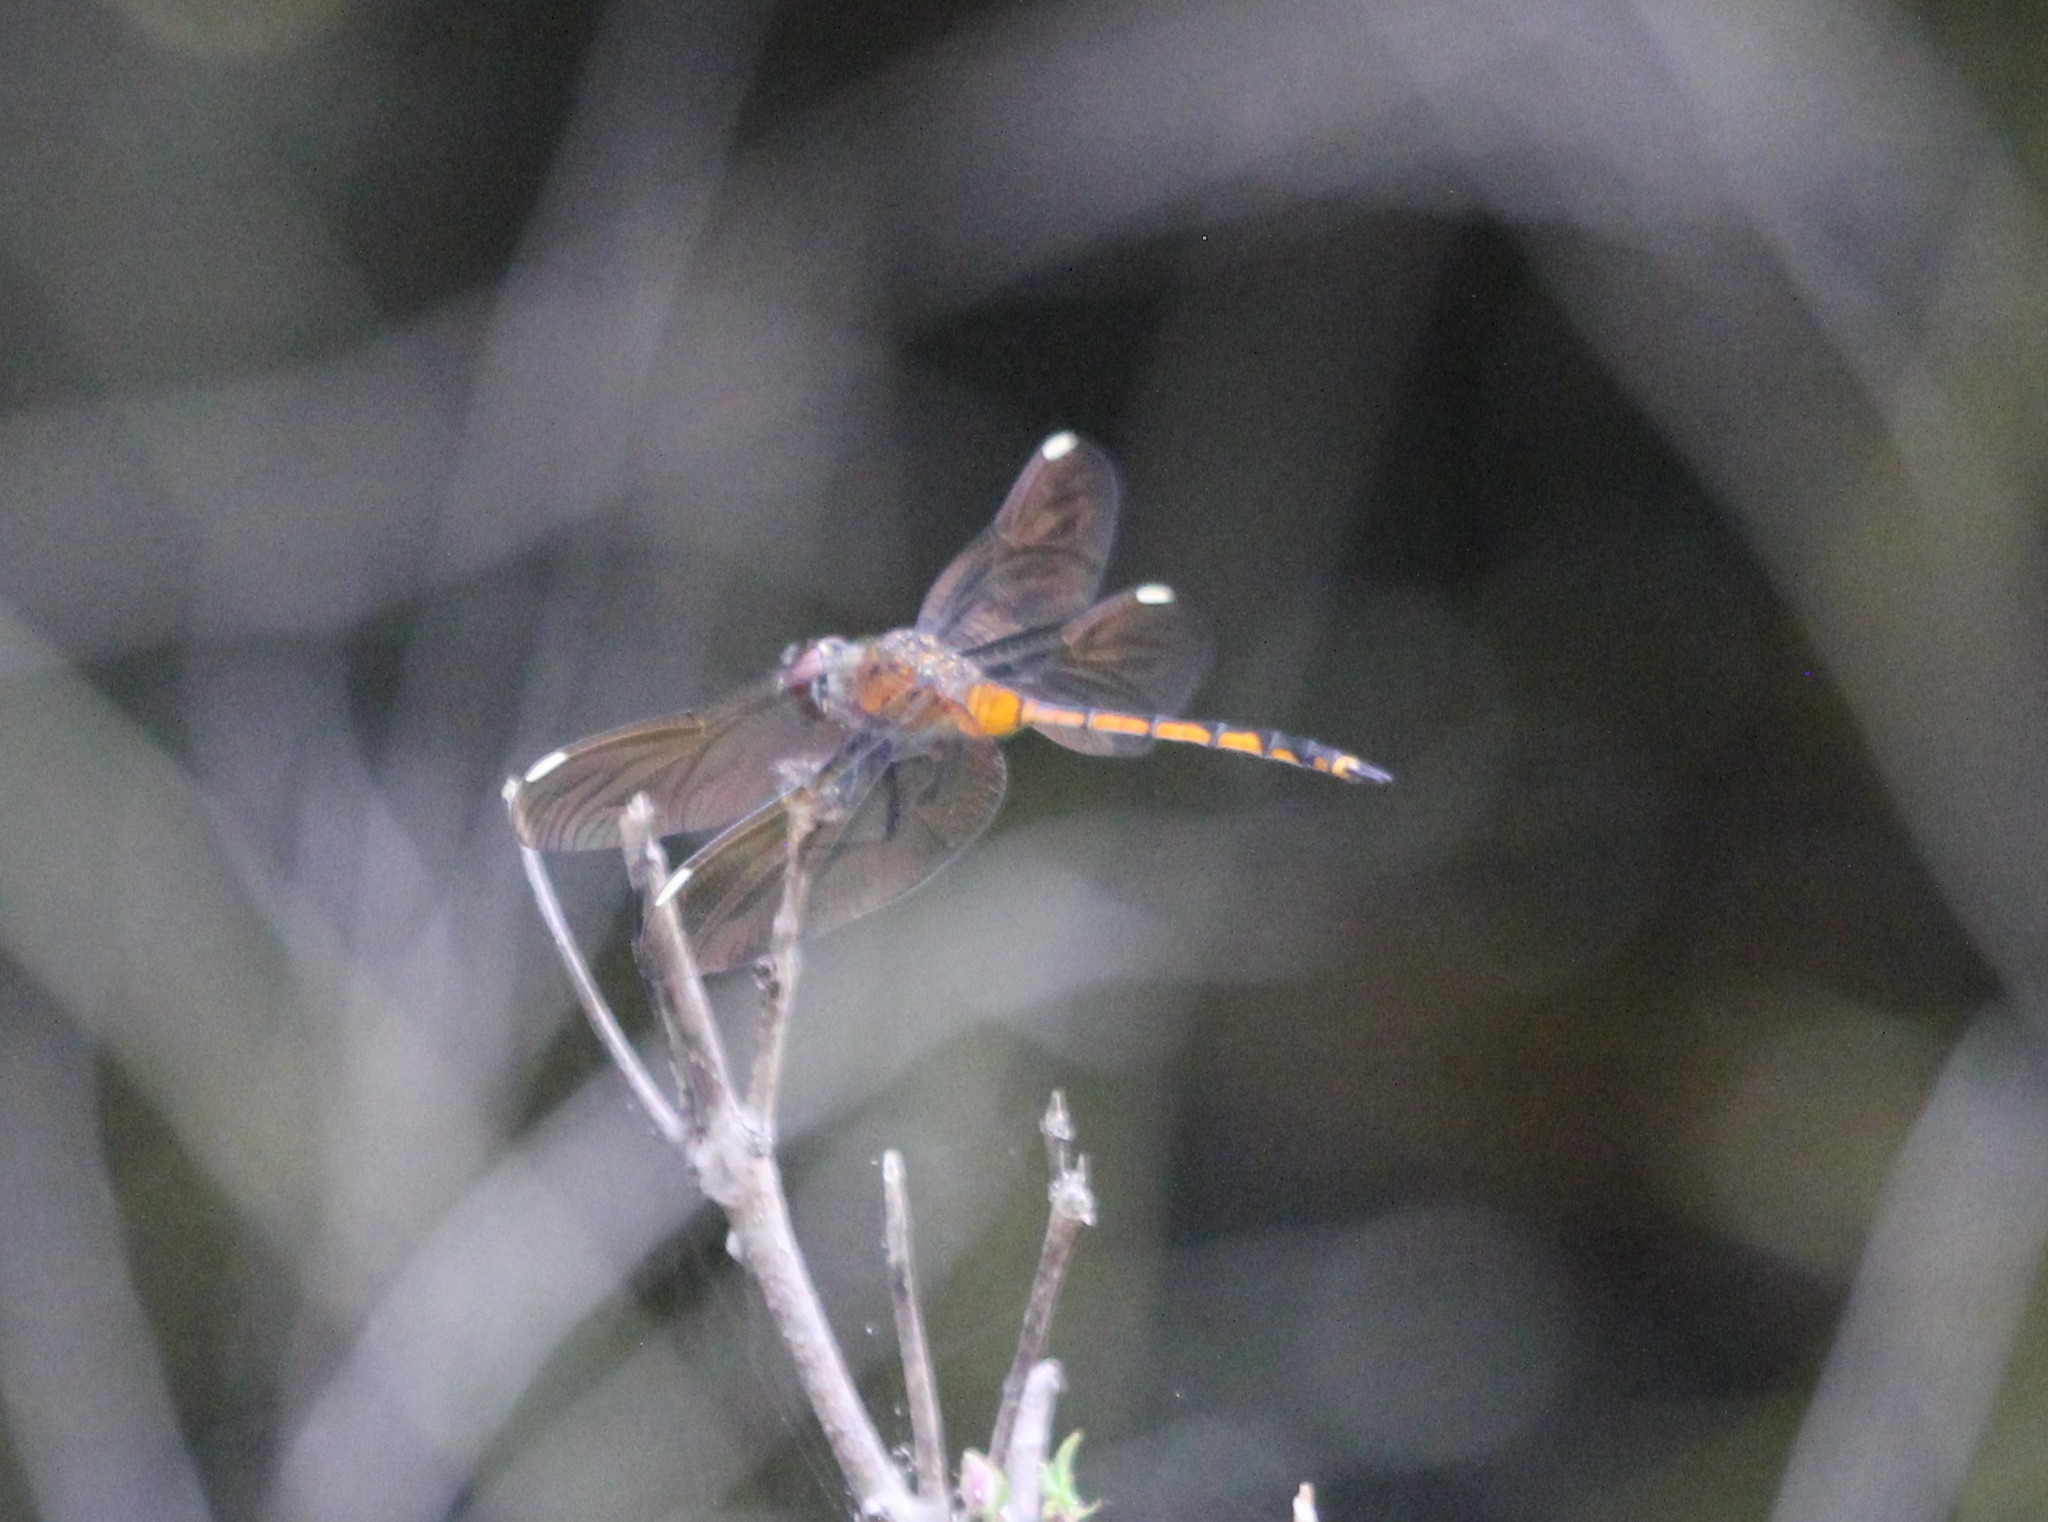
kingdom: Animalia
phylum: Arthropoda
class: Insecta
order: Odonata
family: Libellulidae
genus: Brachymesia
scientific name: Brachymesia gravida
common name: Four-spotted pennant
